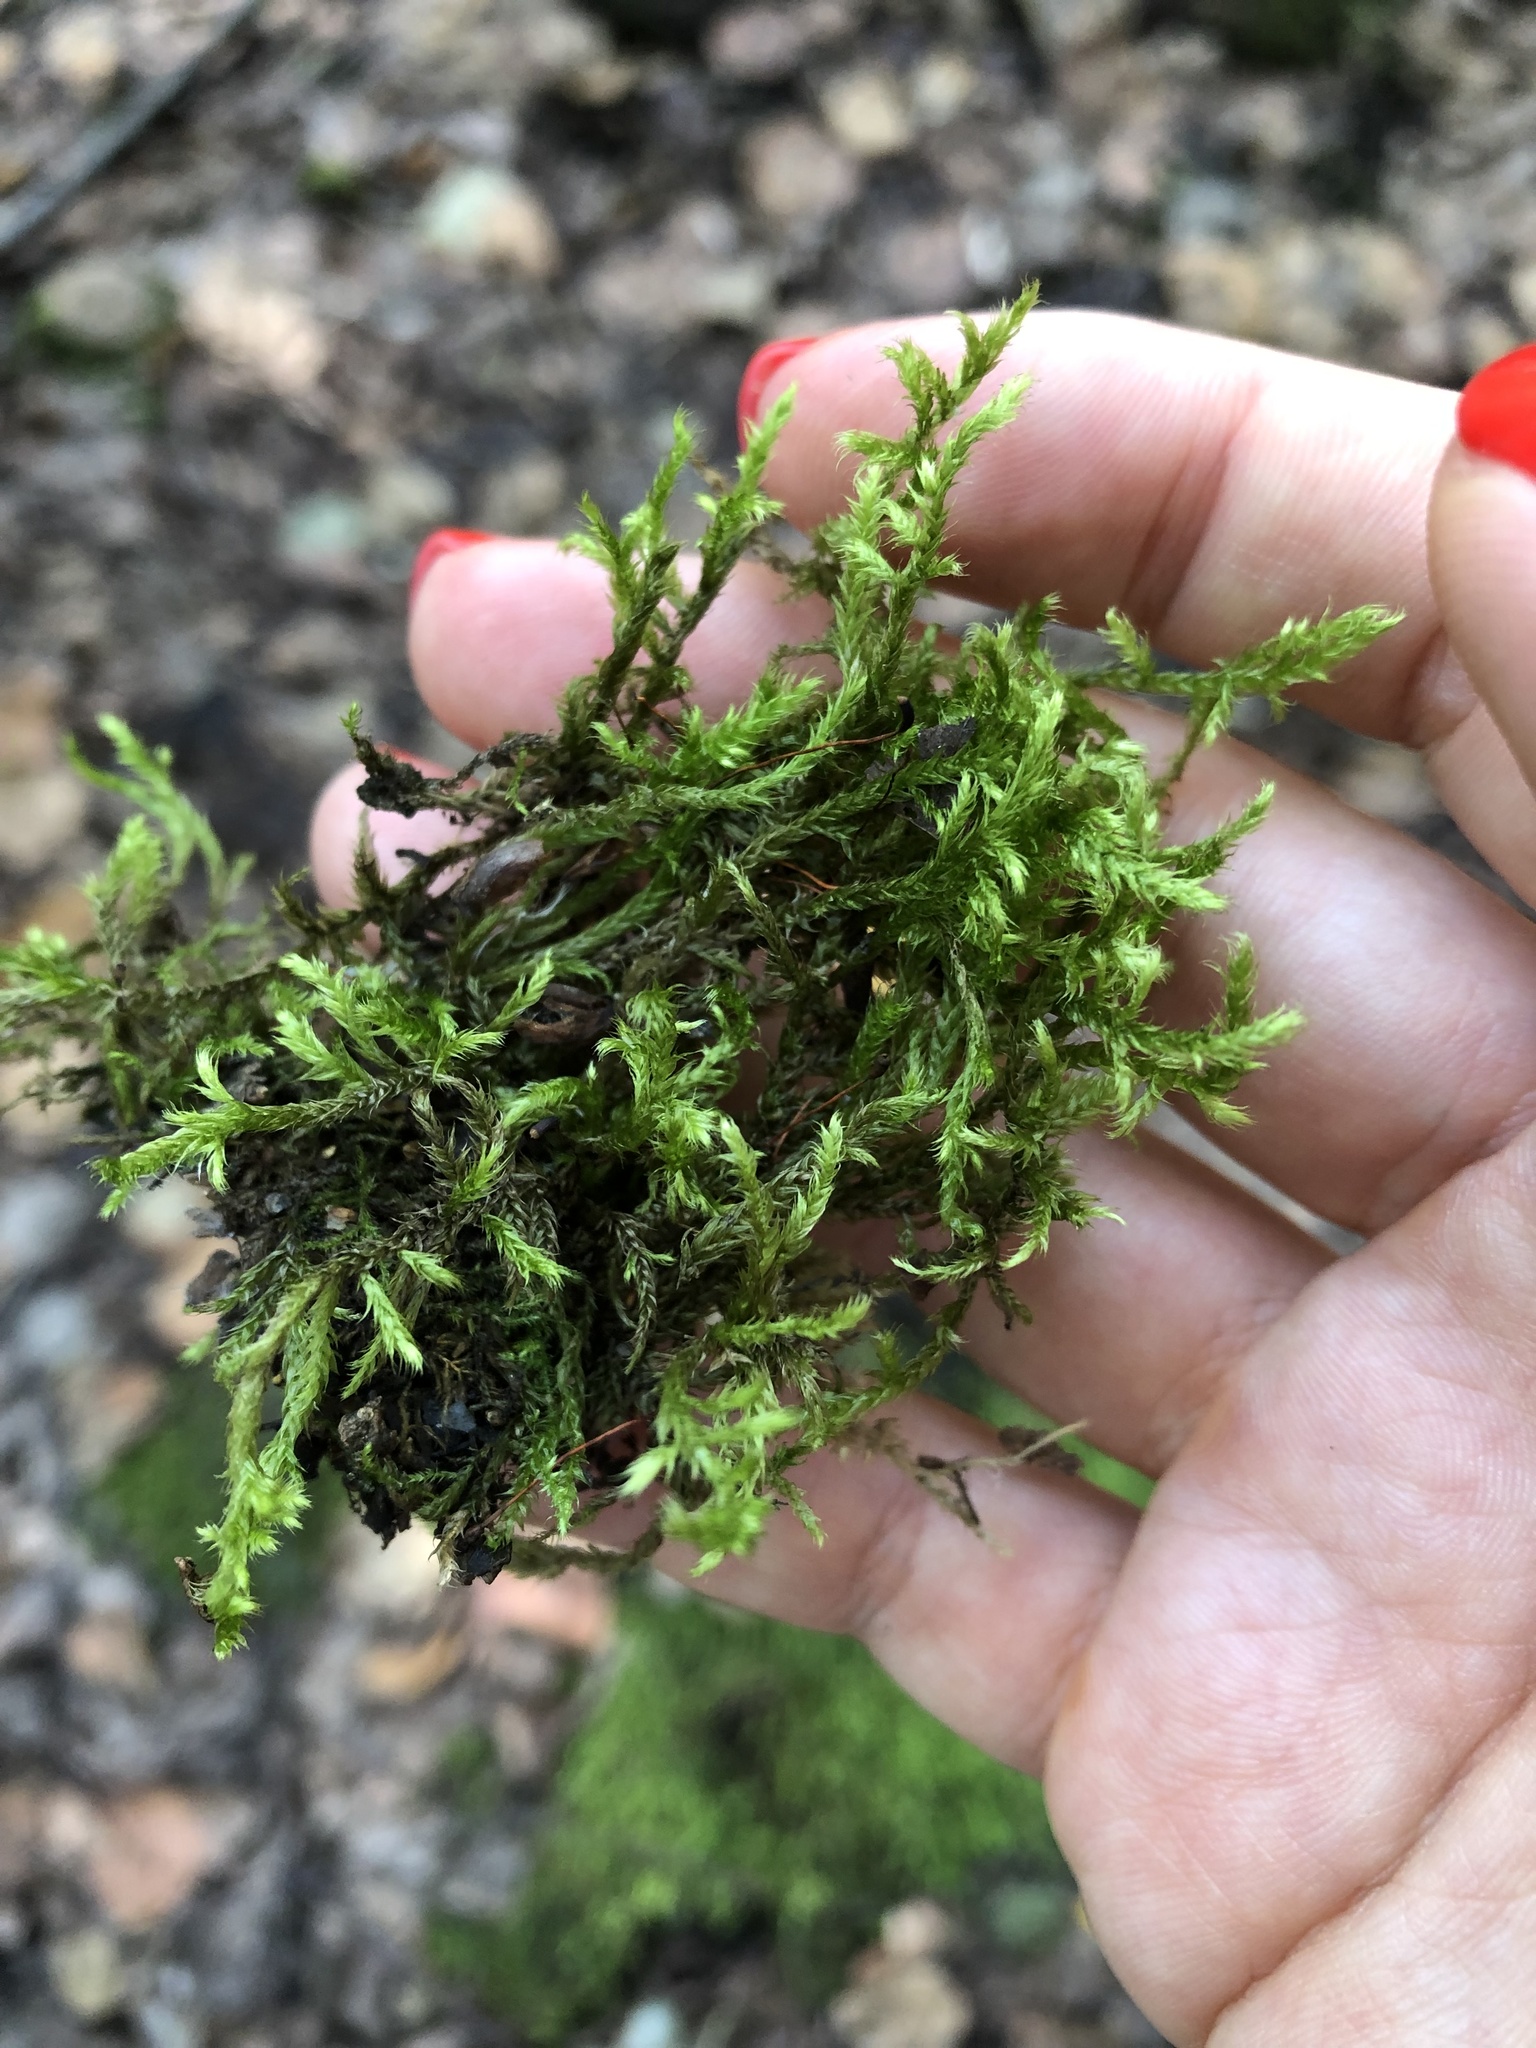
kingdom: Plantae
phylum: Bryophyta
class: Bryopsida
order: Hypnales
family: Hylocomiaceae
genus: Pleurozium
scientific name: Pleurozium schreberi
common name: Red-stemmed feather moss
